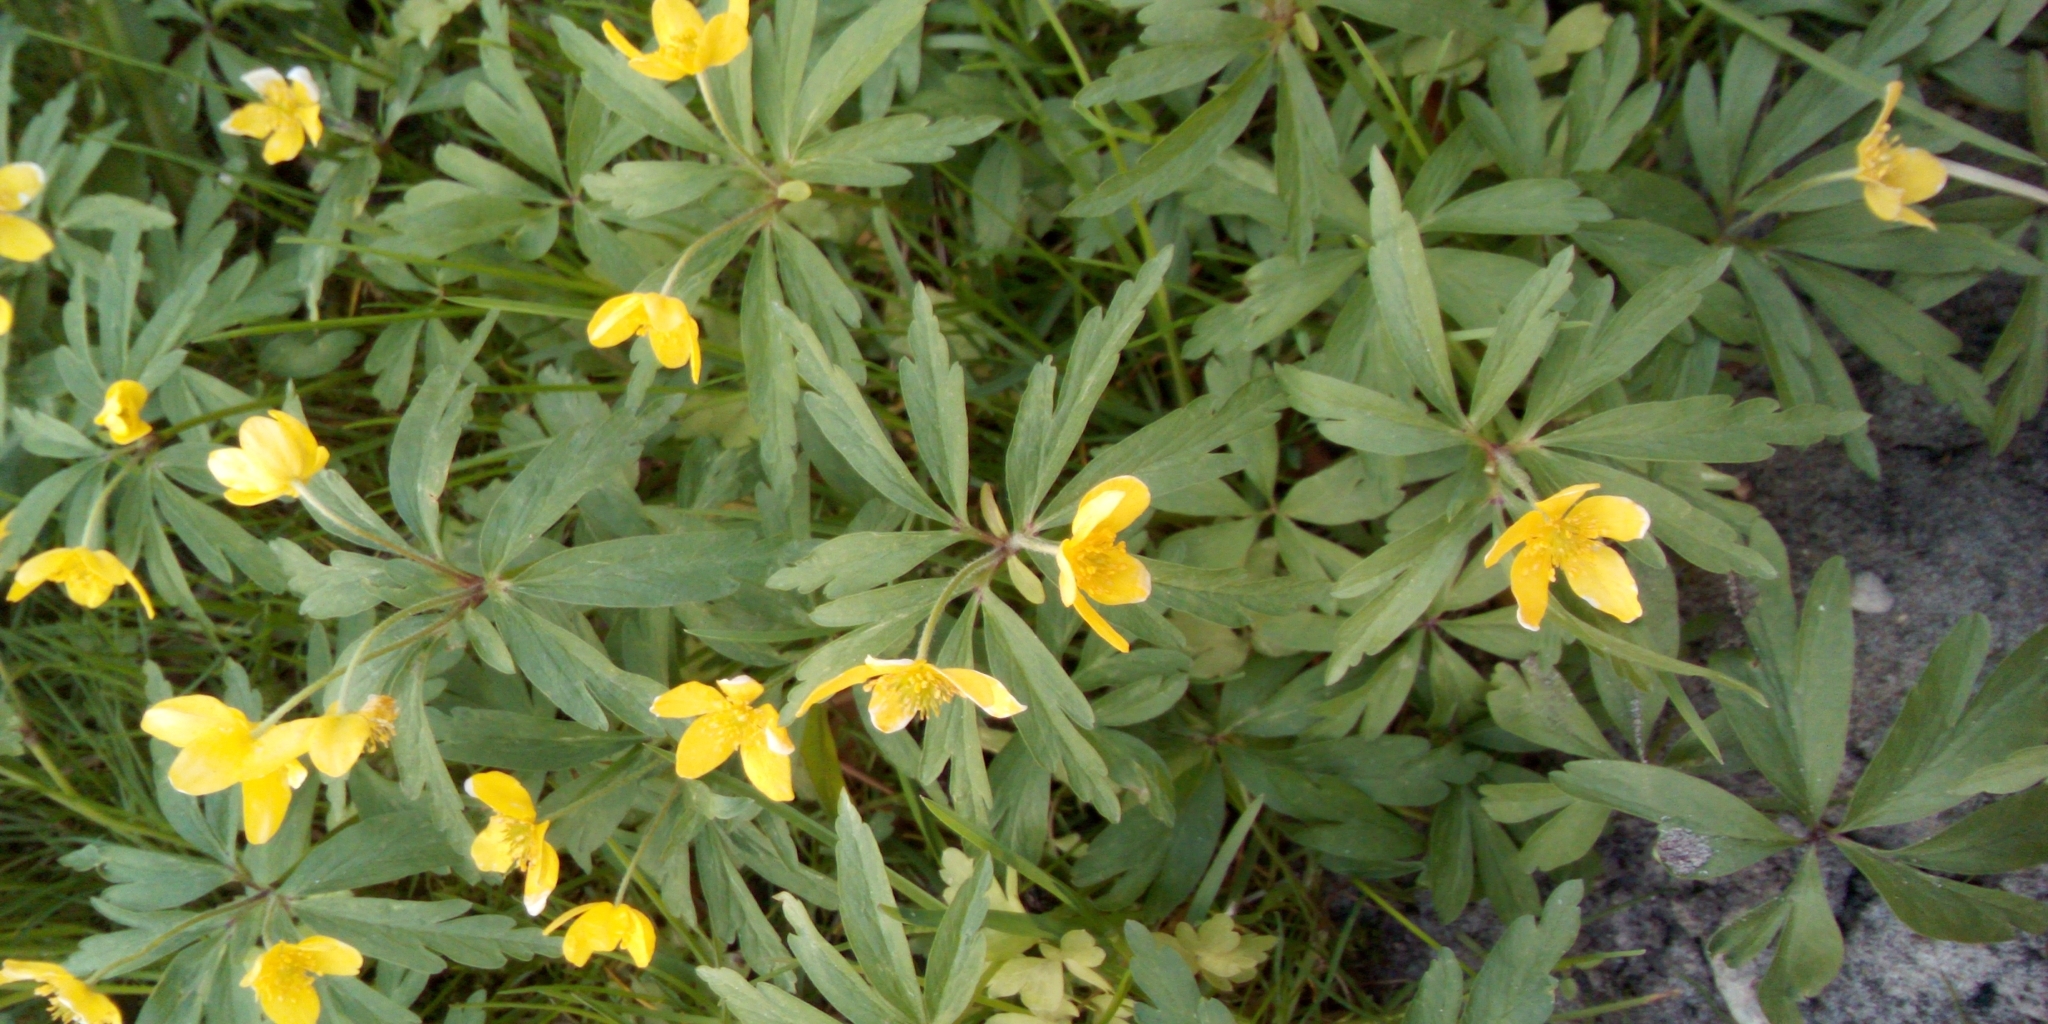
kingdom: Plantae
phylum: Tracheophyta
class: Magnoliopsida
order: Ranunculales
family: Ranunculaceae
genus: Anemone
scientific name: Anemone ranunculoides
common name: Yellow anemone
